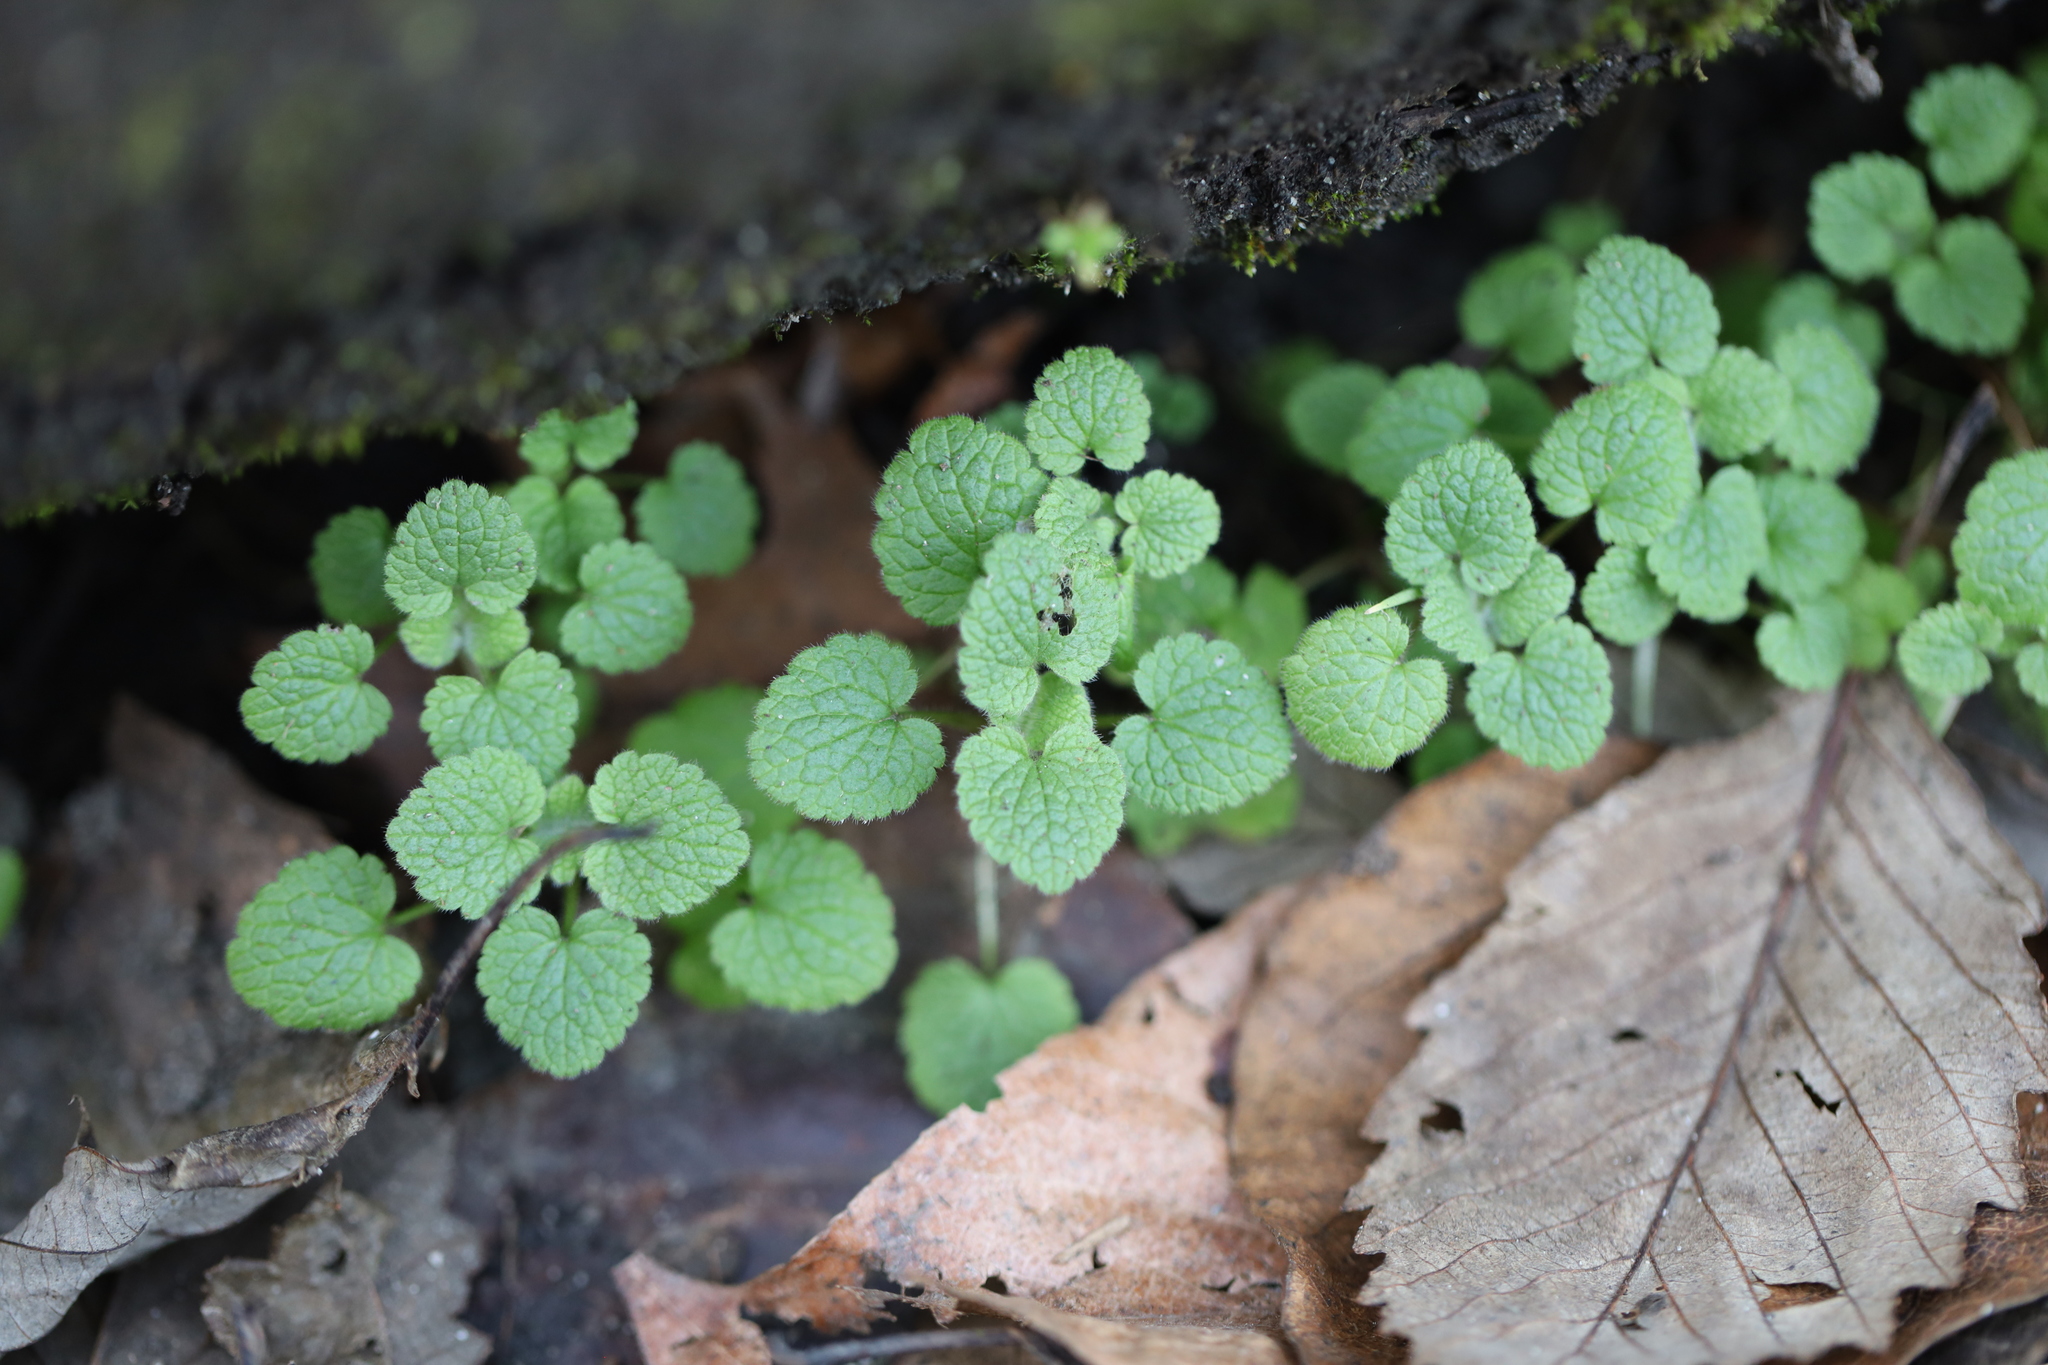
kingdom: Plantae
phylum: Tracheophyta
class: Magnoliopsida
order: Lamiales
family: Lamiaceae
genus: Lamium
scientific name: Lamium purpureum
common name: Red dead-nettle
